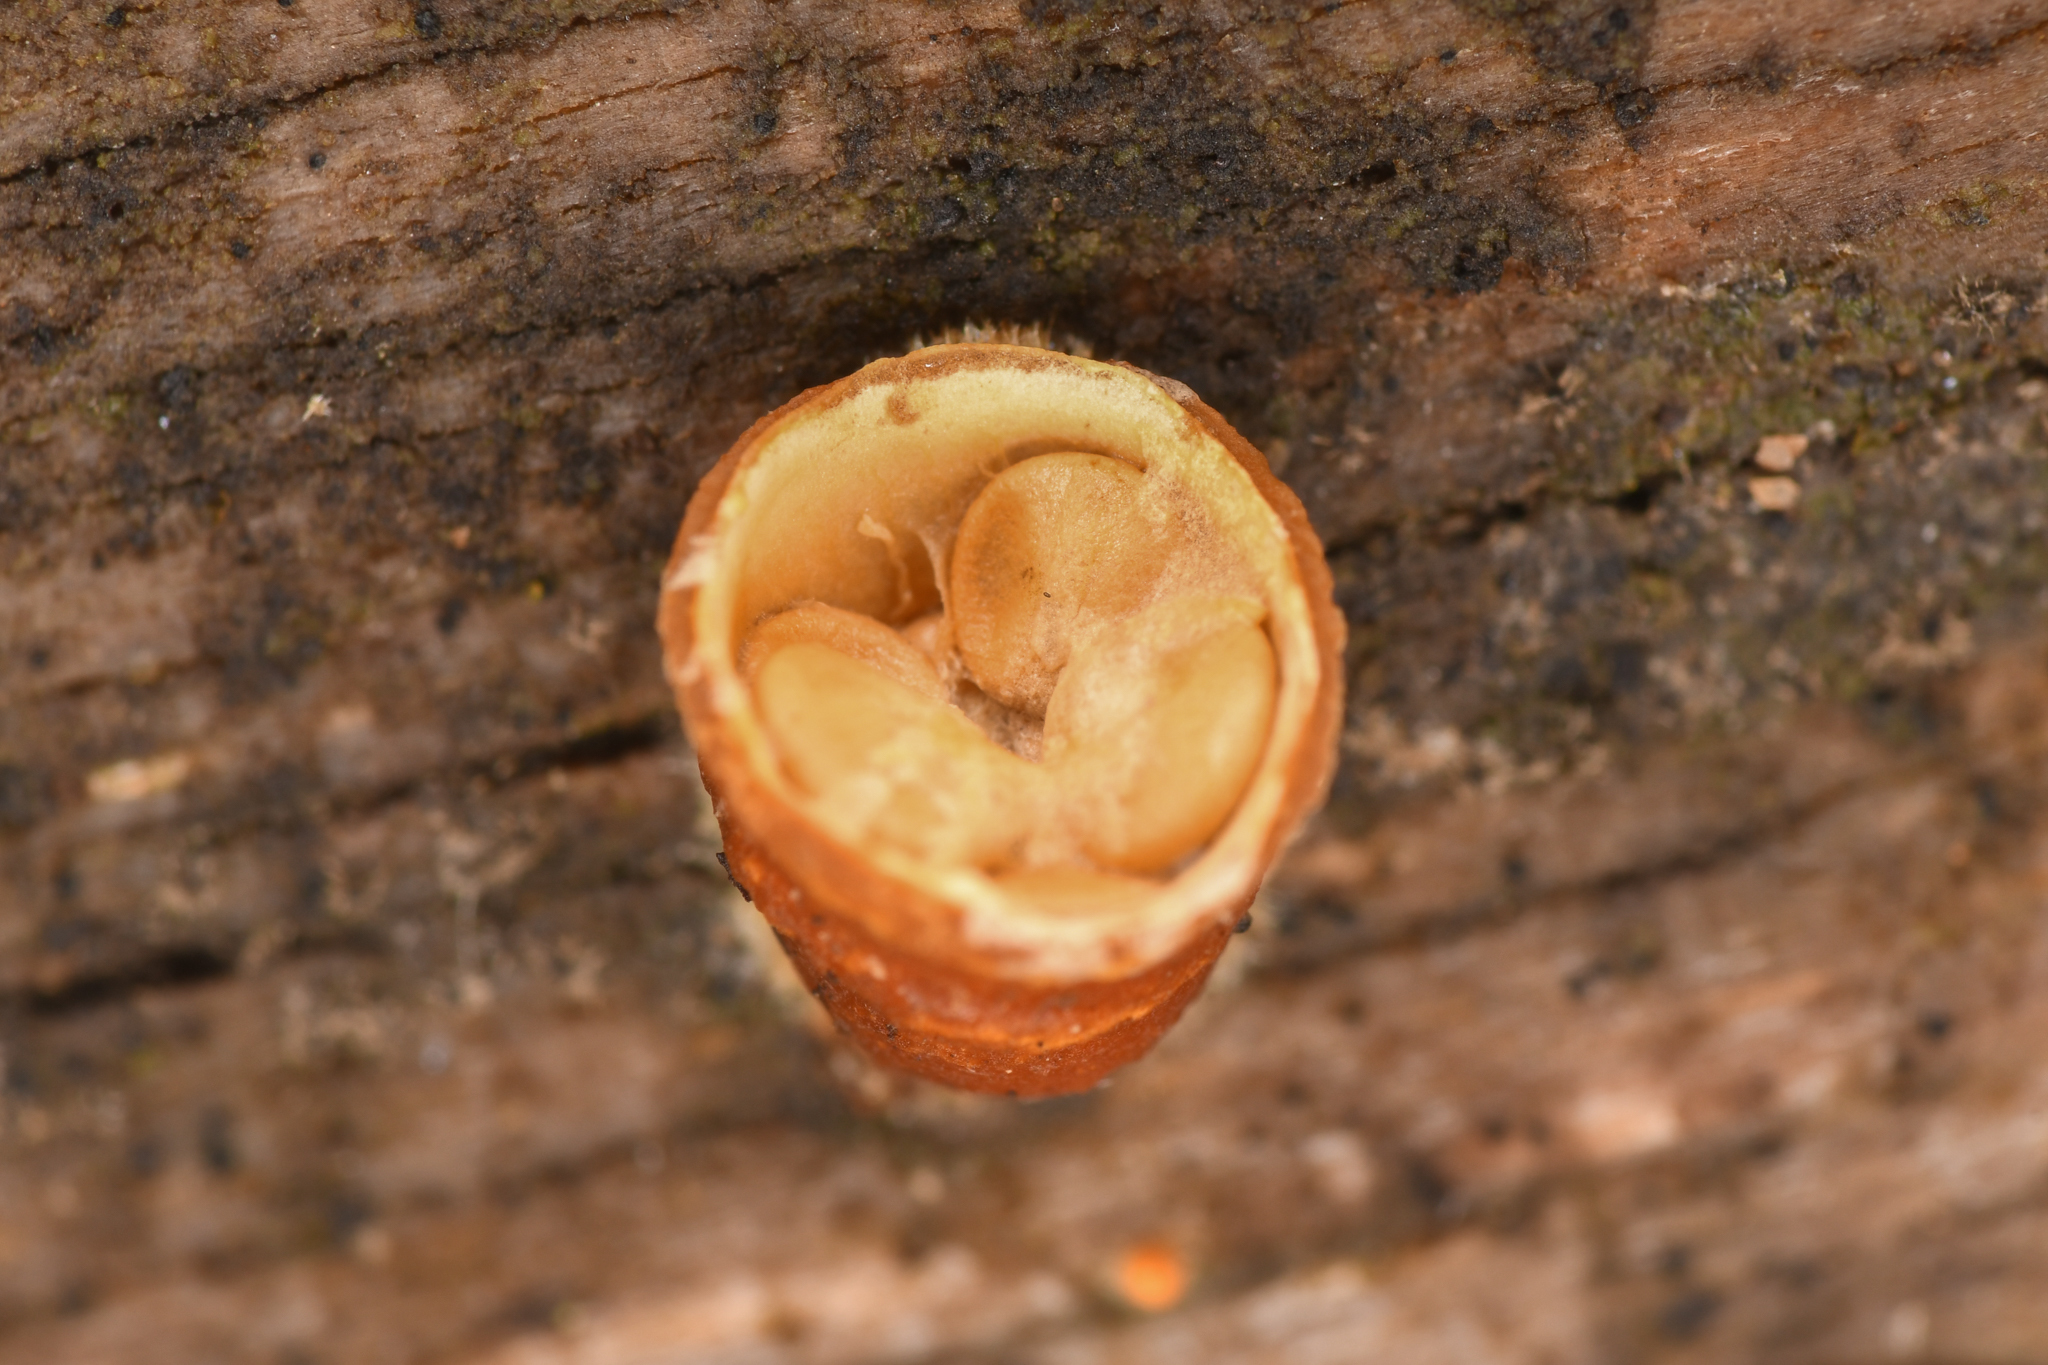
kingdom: Fungi
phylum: Basidiomycota
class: Agaricomycetes
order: Agaricales
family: Nidulariaceae
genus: Crucibulum
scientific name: Crucibulum laeve
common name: Common bird's nest
